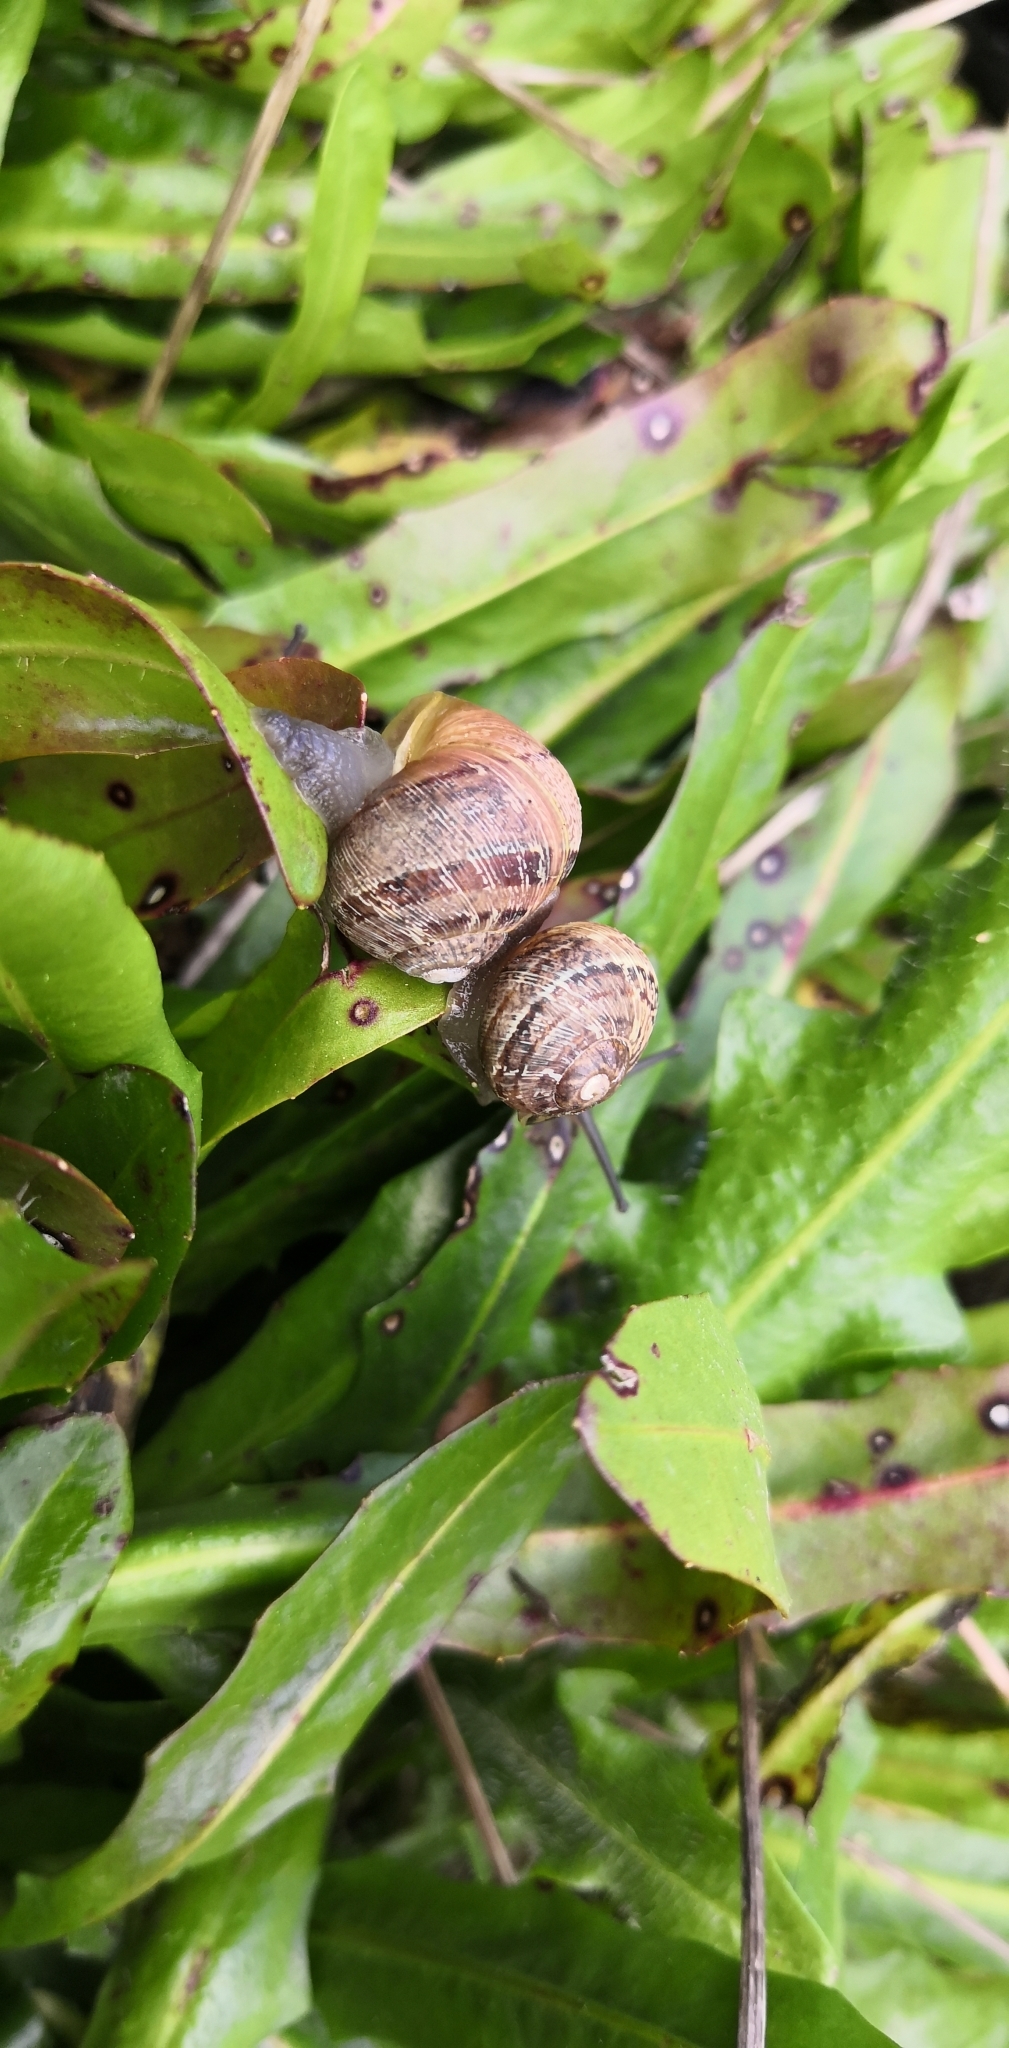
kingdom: Animalia
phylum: Mollusca
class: Gastropoda
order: Stylommatophora
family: Helicidae
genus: Cornu
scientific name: Cornu aspersum
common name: Brown garden snail
